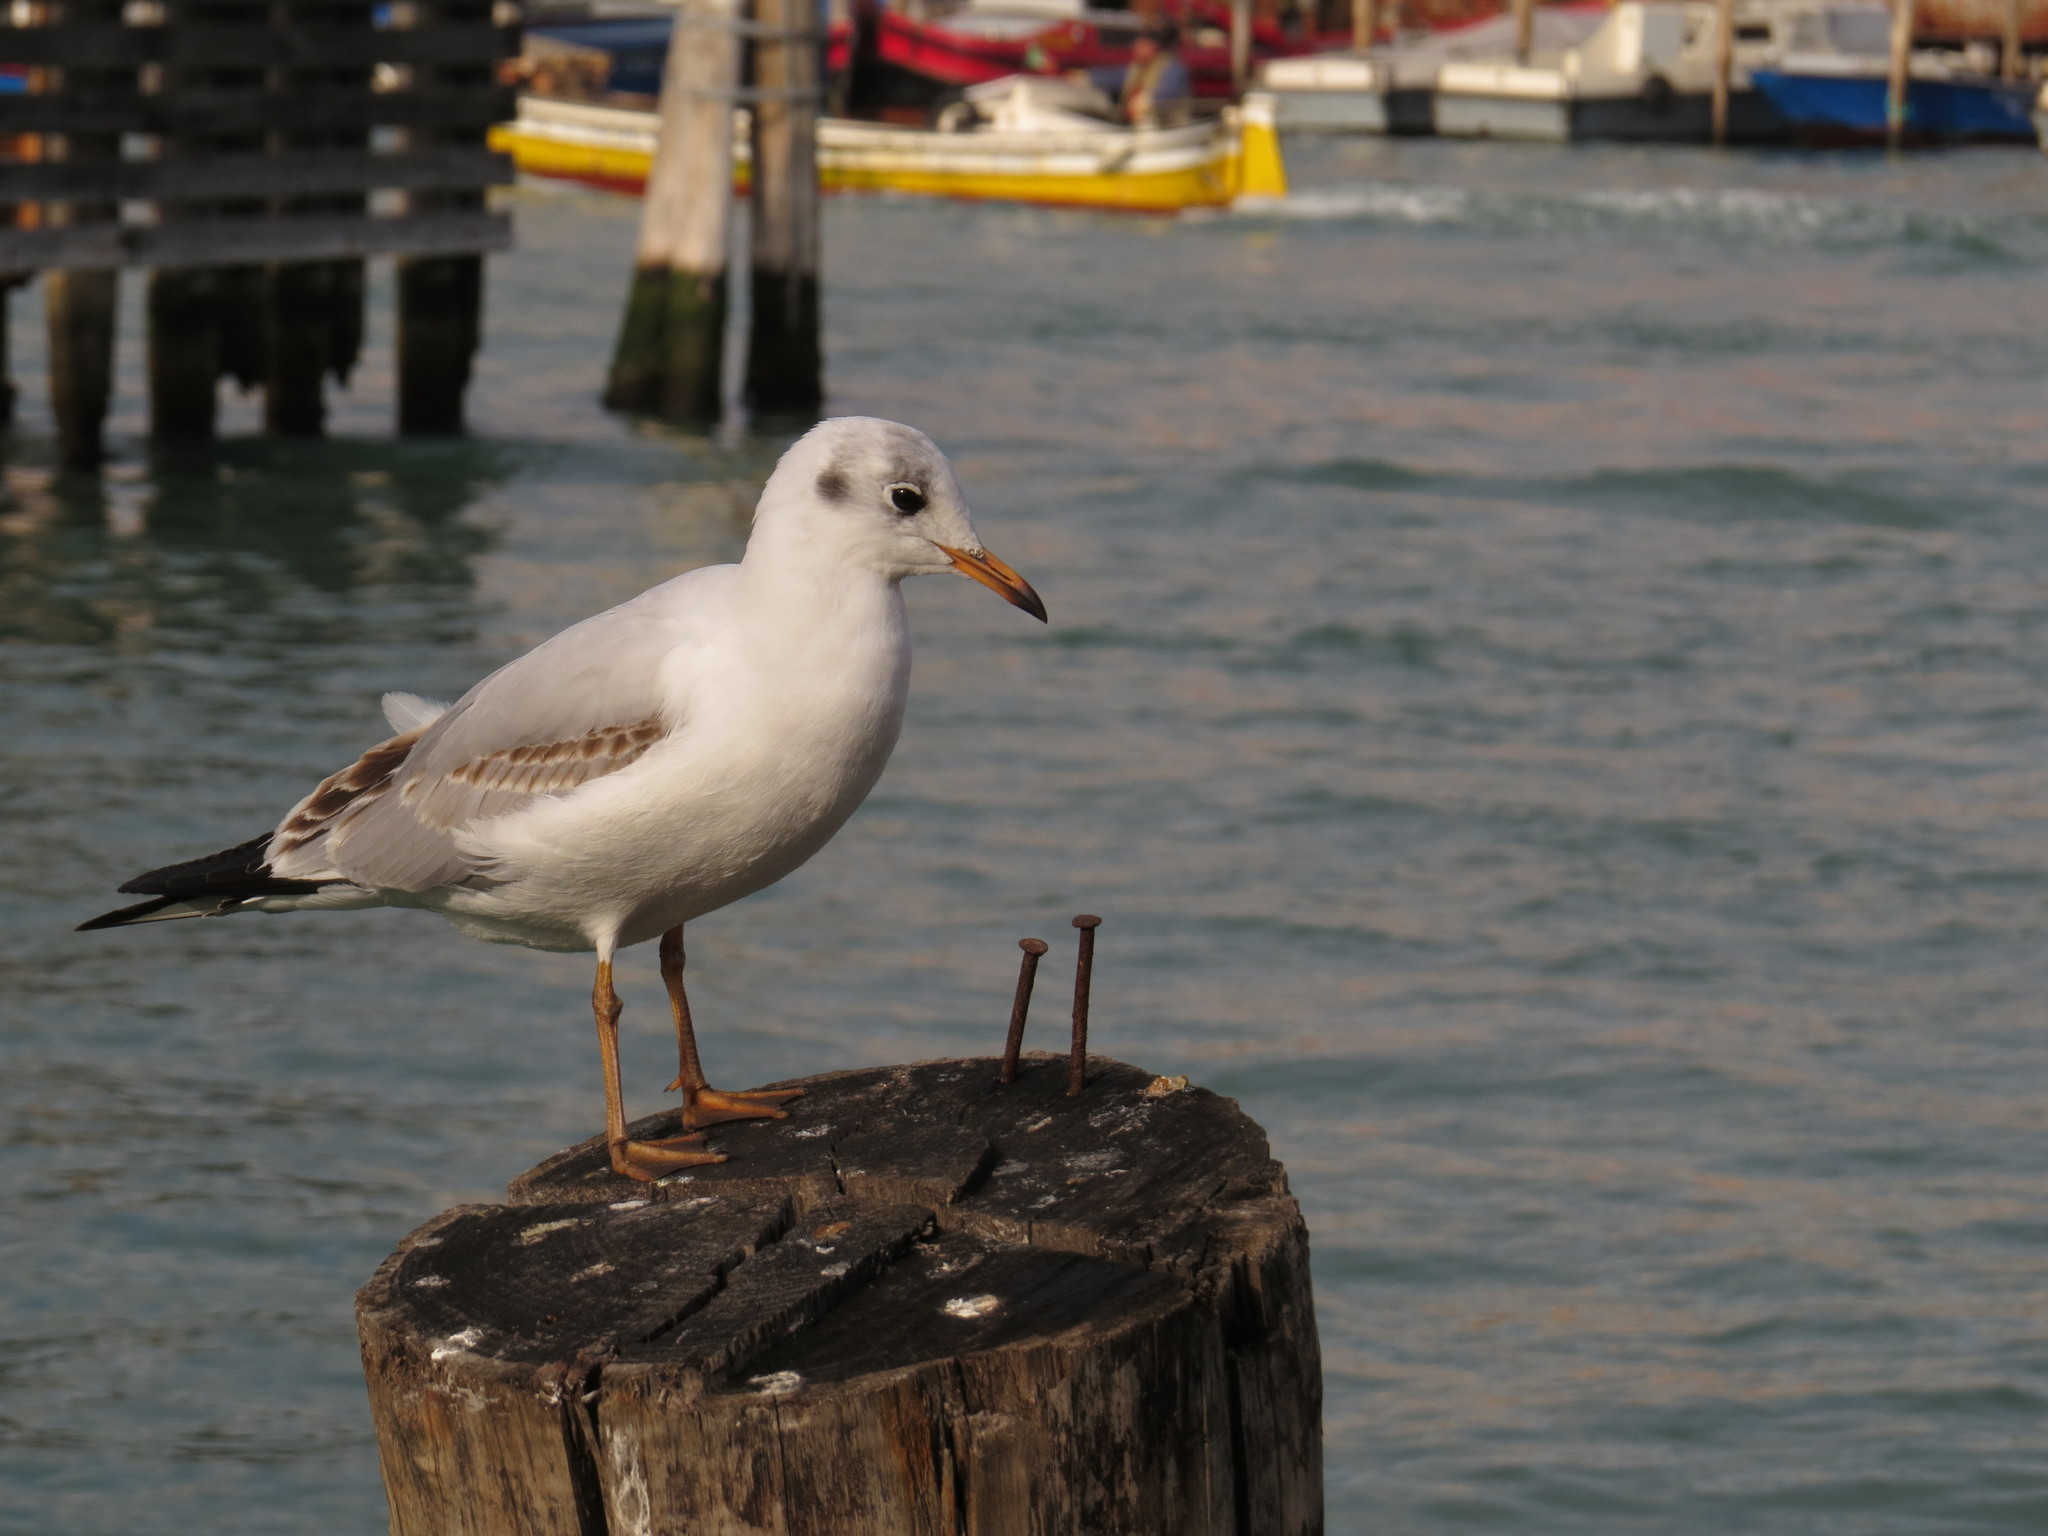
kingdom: Animalia
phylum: Chordata
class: Aves
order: Charadriiformes
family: Laridae
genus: Chroicocephalus
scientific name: Chroicocephalus ridibundus
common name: Black-headed gull
